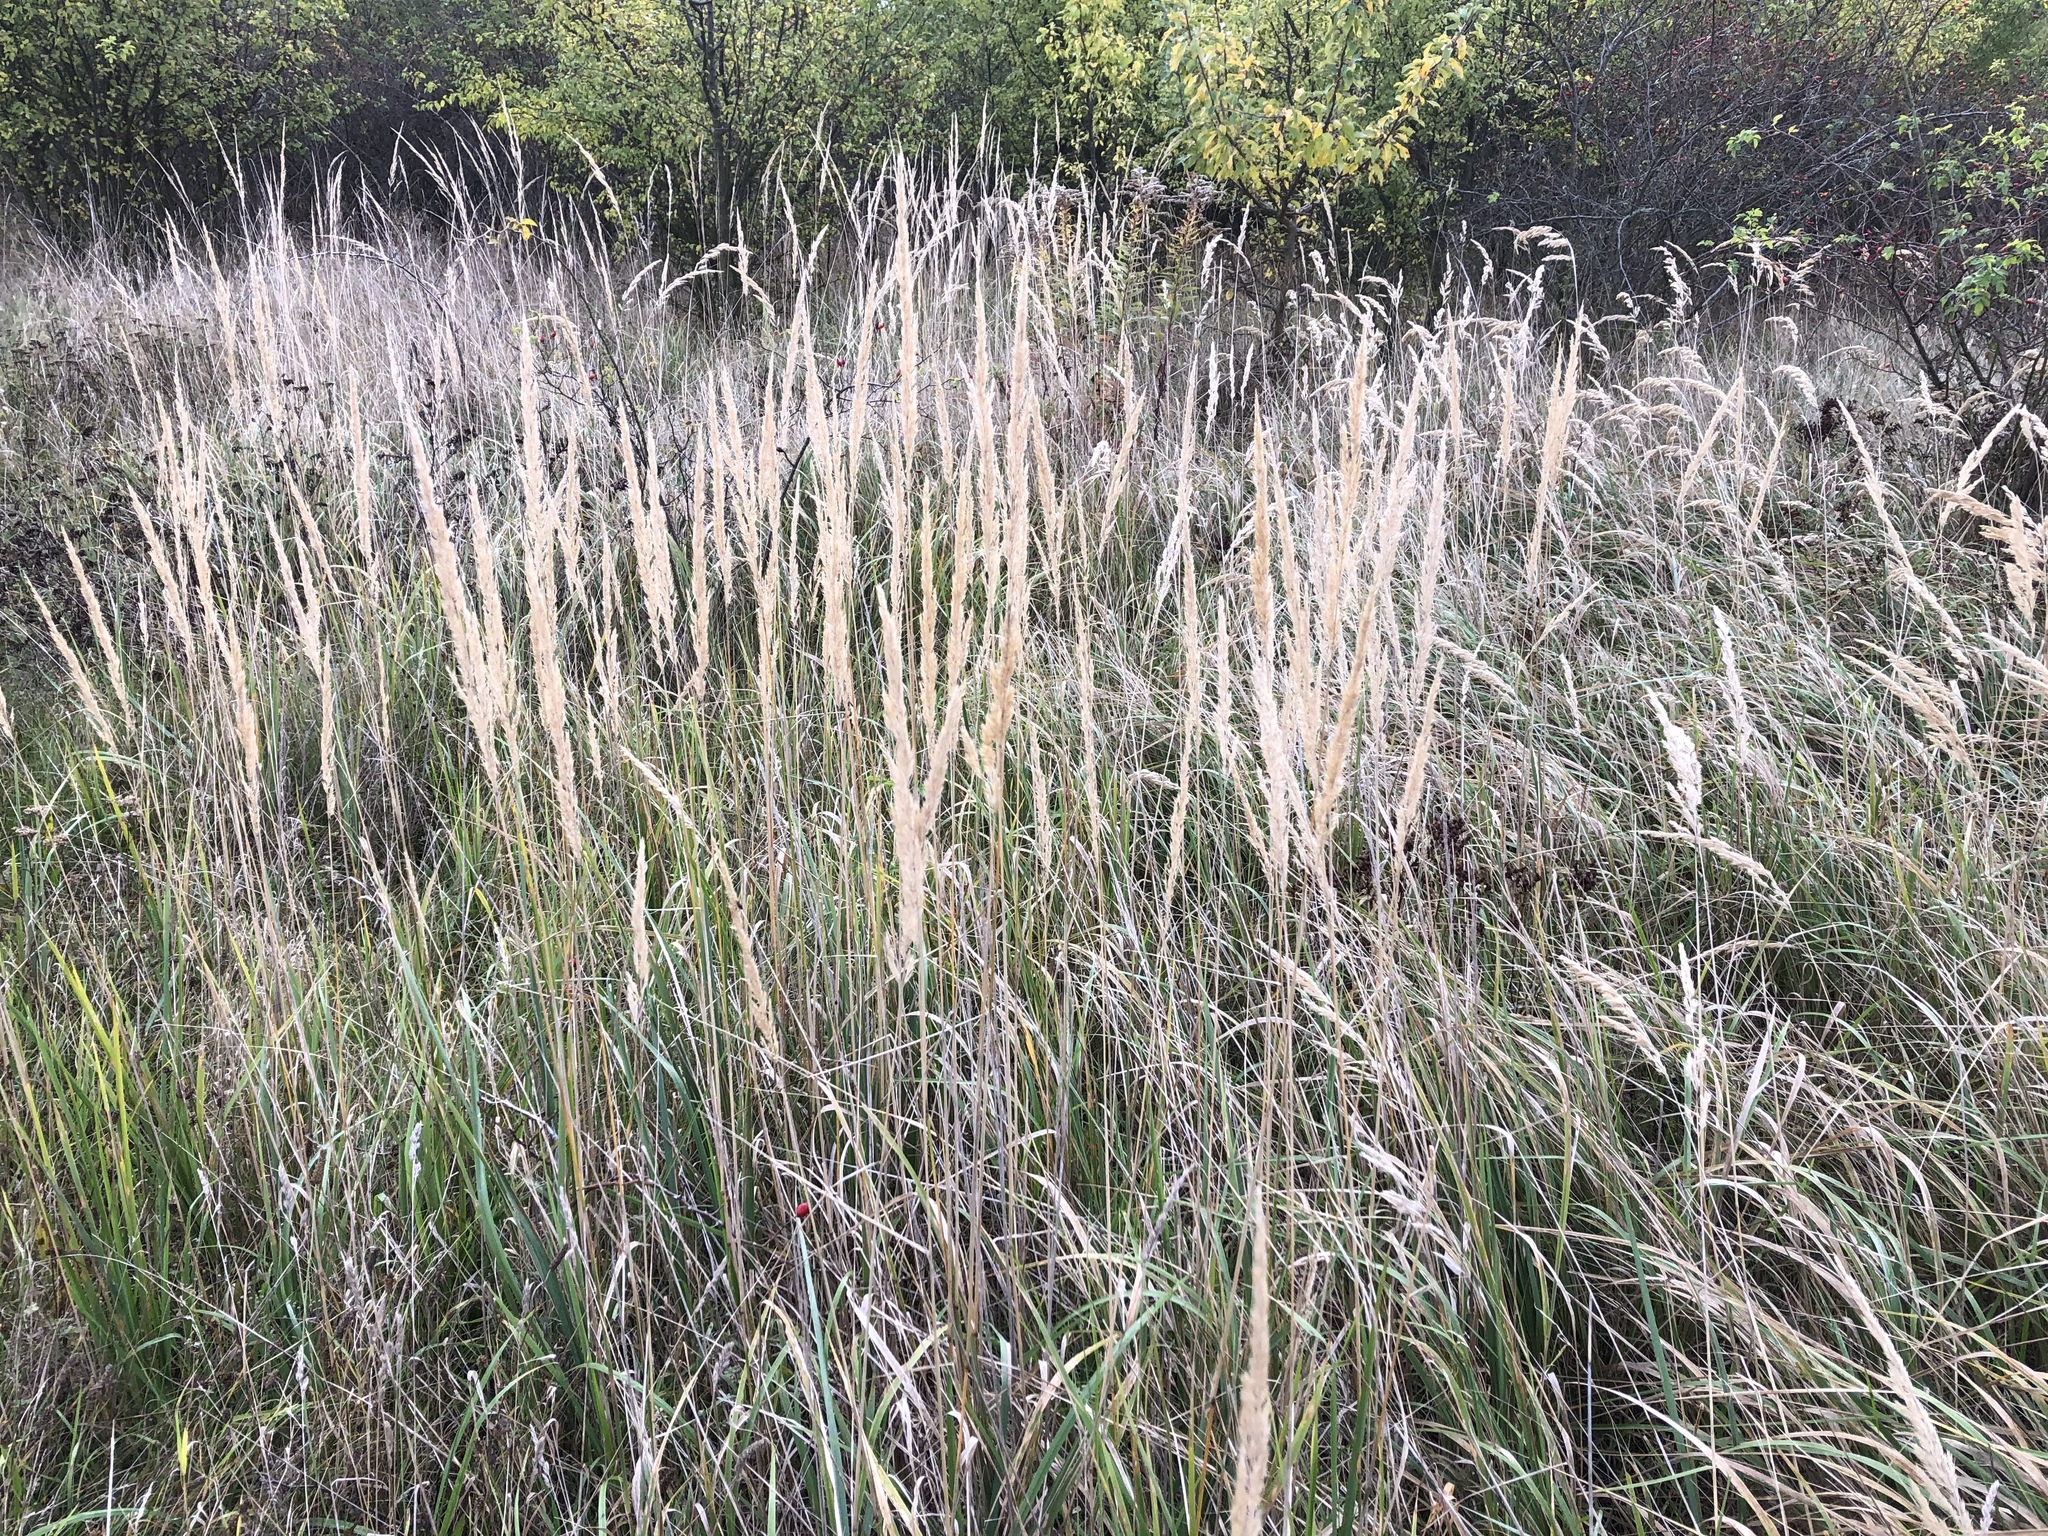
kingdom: Plantae
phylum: Tracheophyta
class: Liliopsida
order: Poales
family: Poaceae
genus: Calamagrostis
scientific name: Calamagrostis epigejos
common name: Wood small-reed
